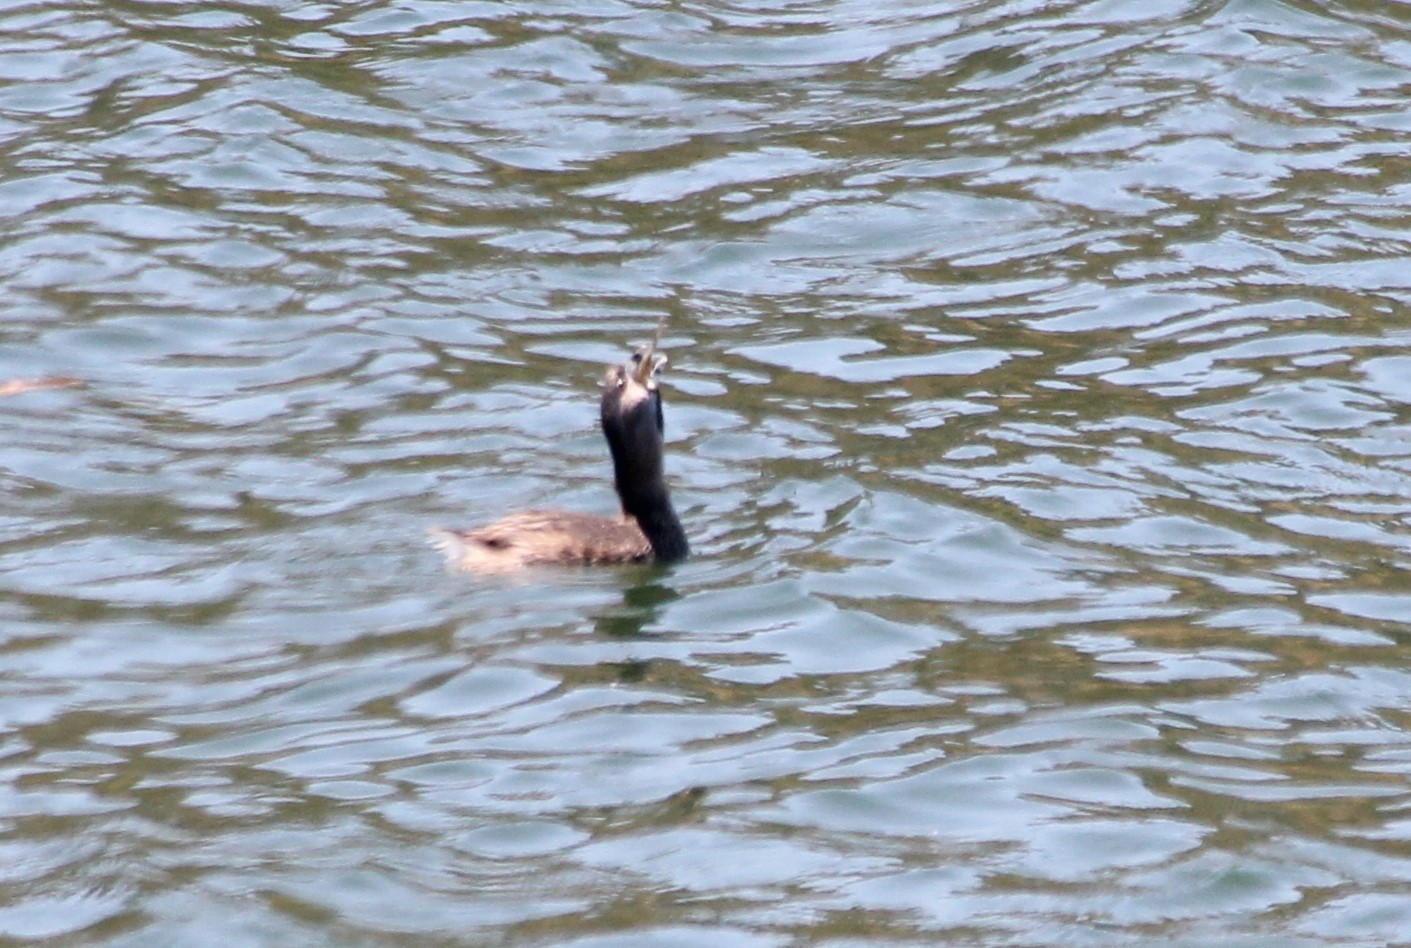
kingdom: Animalia
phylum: Chordata
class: Aves
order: Podicipediformes
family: Podicipedidae
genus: Podilymbus
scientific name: Podilymbus podiceps
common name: Pied-billed grebe
